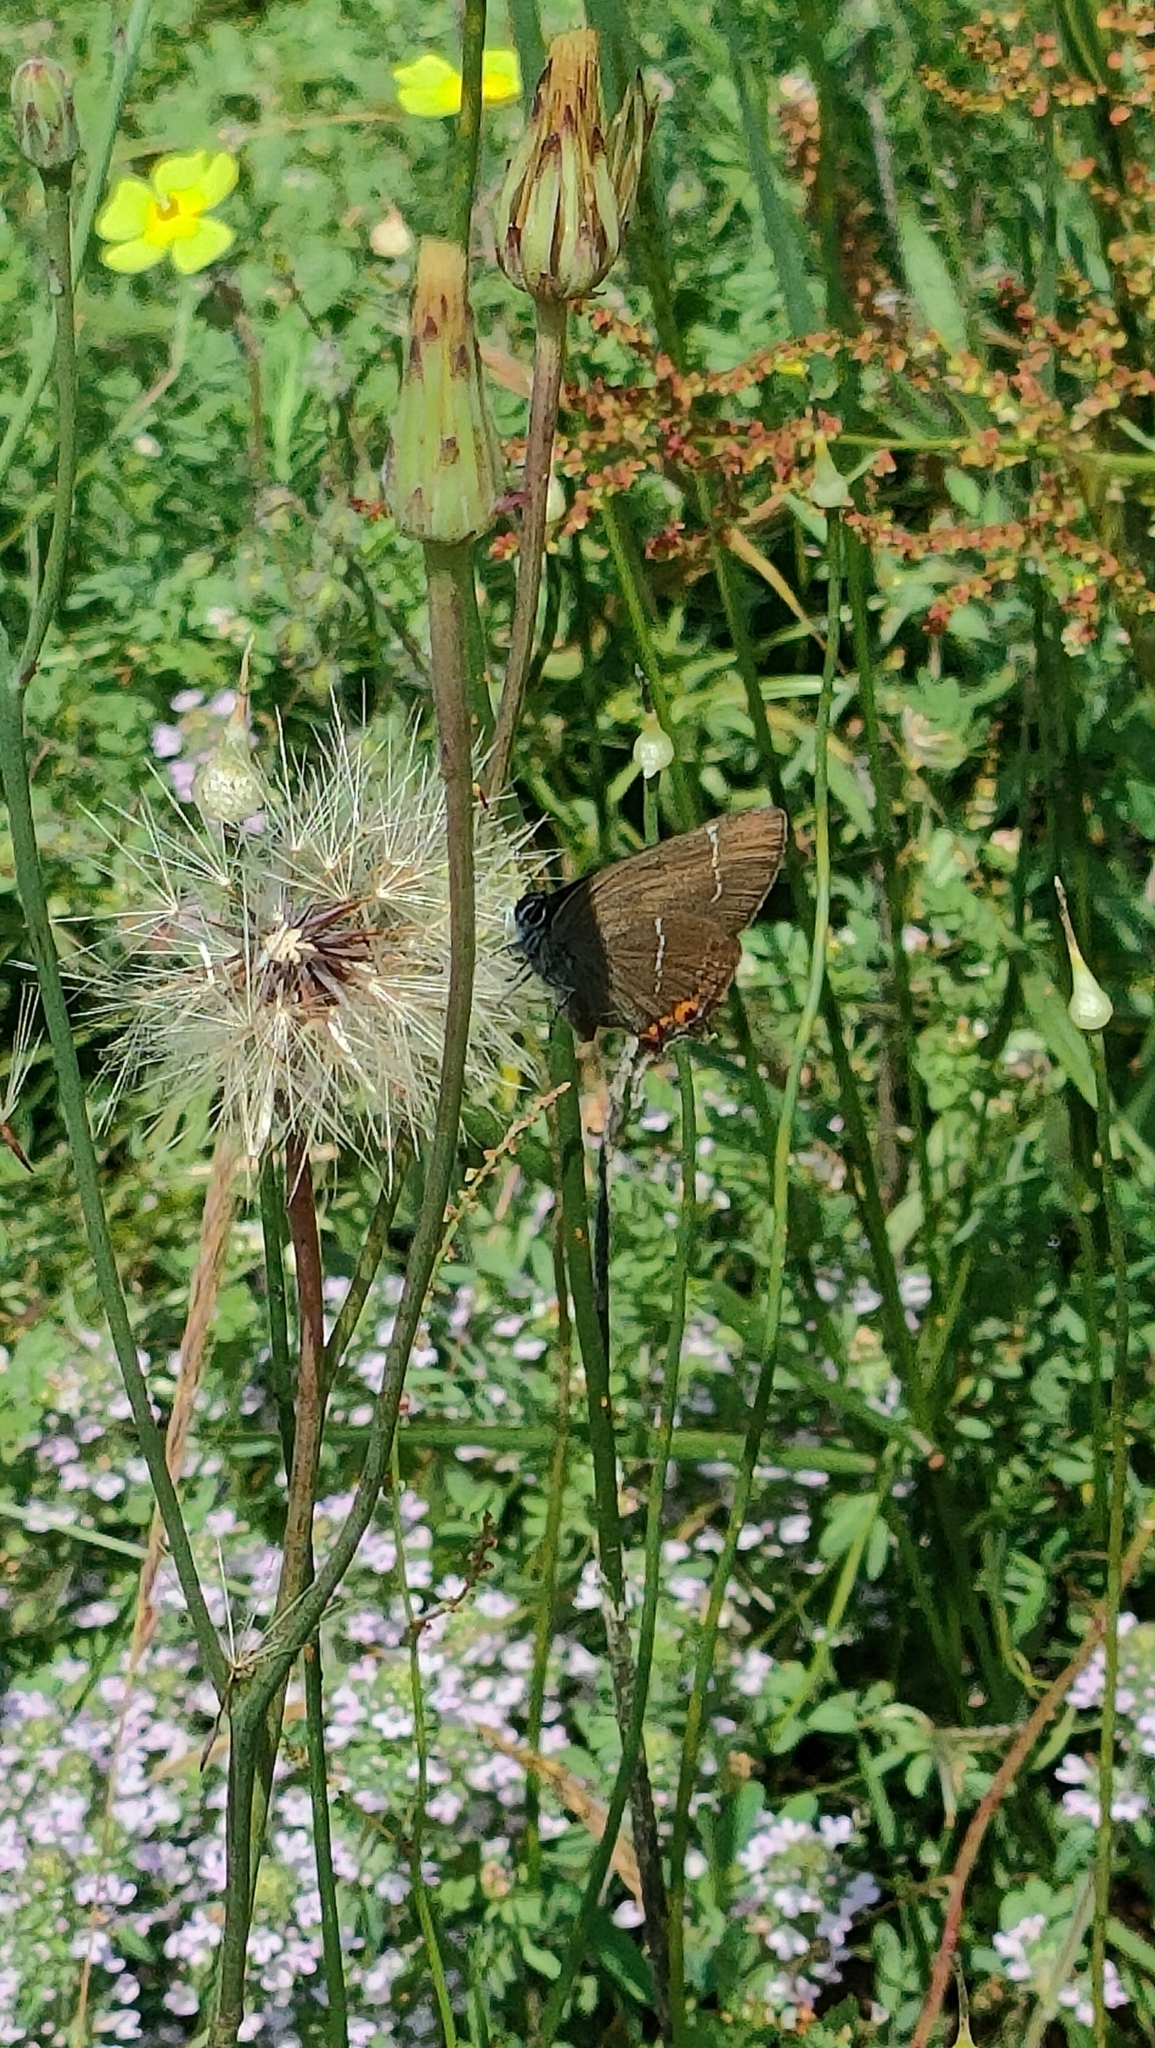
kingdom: Animalia
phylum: Arthropoda
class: Insecta
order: Lepidoptera
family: Lycaenidae
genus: Satyrium
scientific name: Satyrium w-album
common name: White-letter hairstreak
